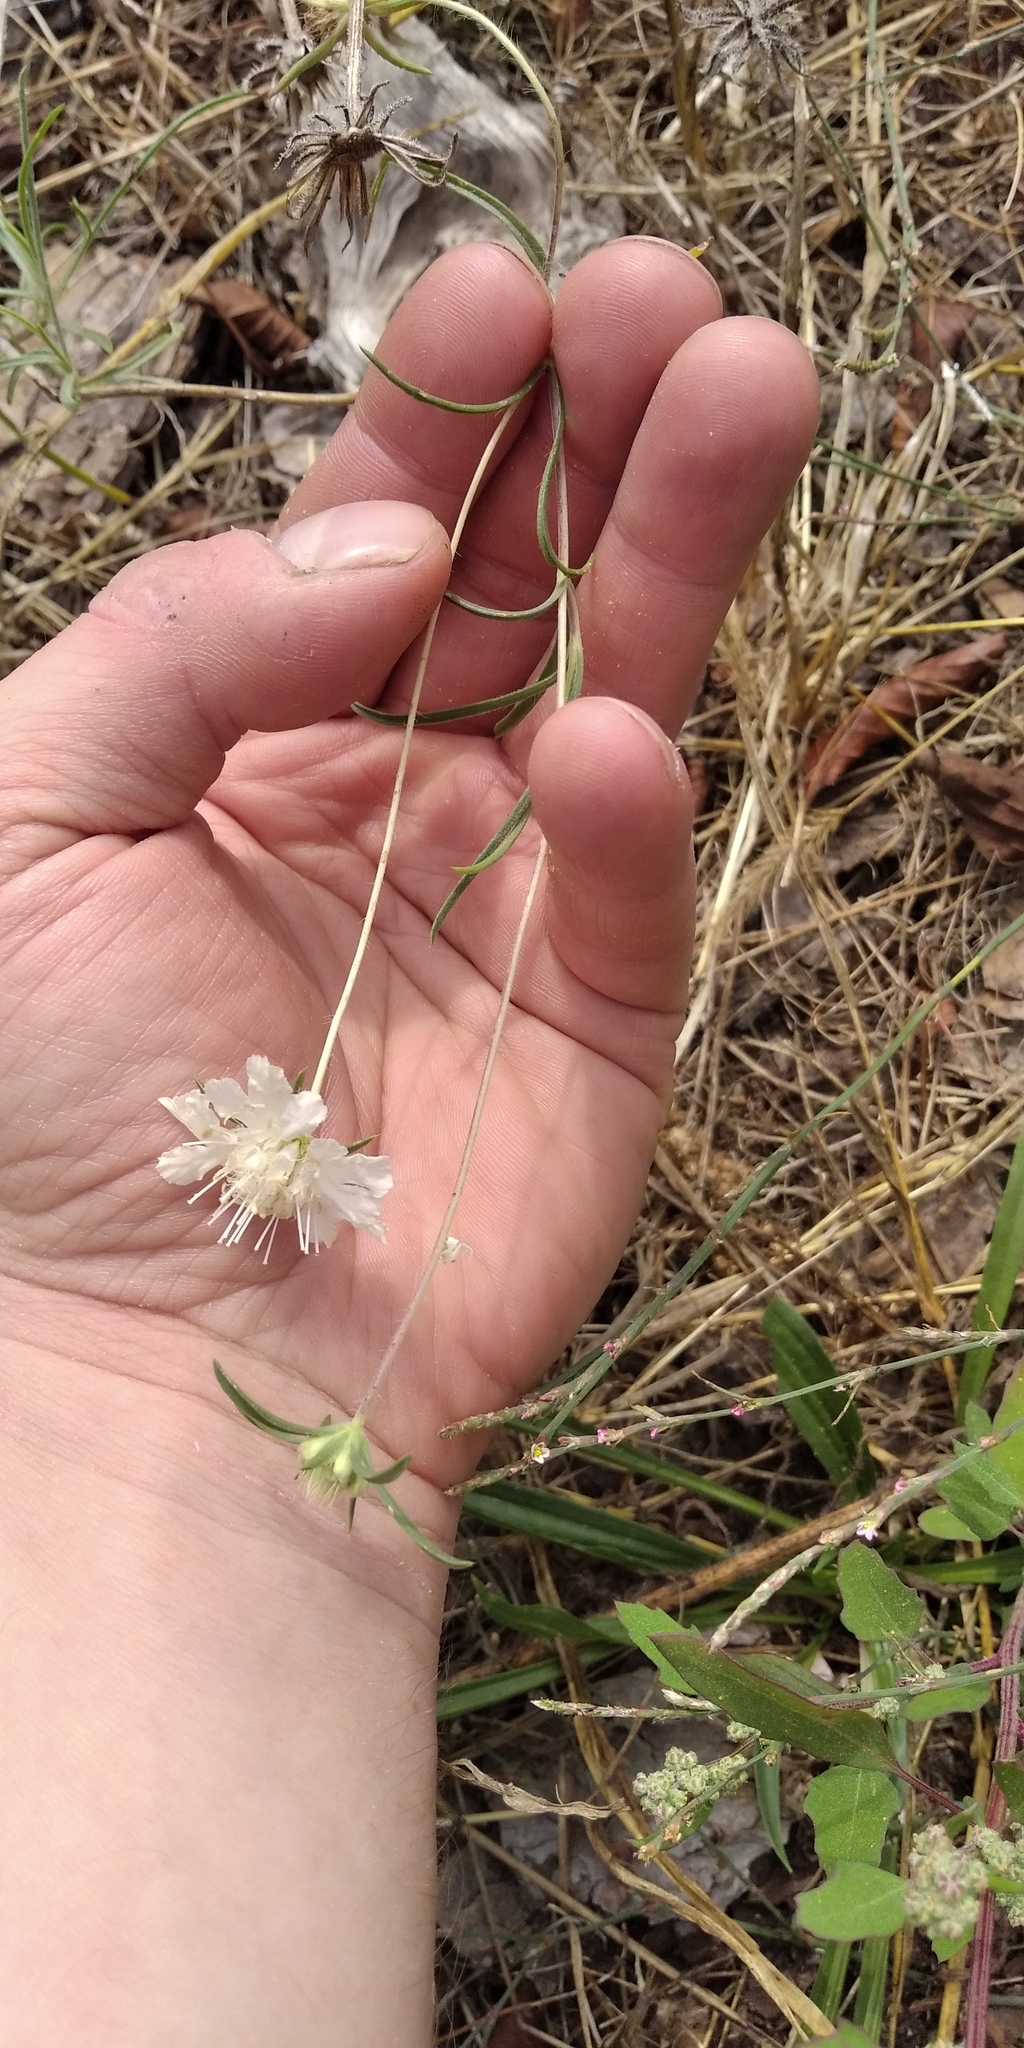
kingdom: Plantae
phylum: Tracheophyta
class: Magnoliopsida
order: Dipsacales
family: Caprifoliaceae
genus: Lomelosia
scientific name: Lomelosia argentea
